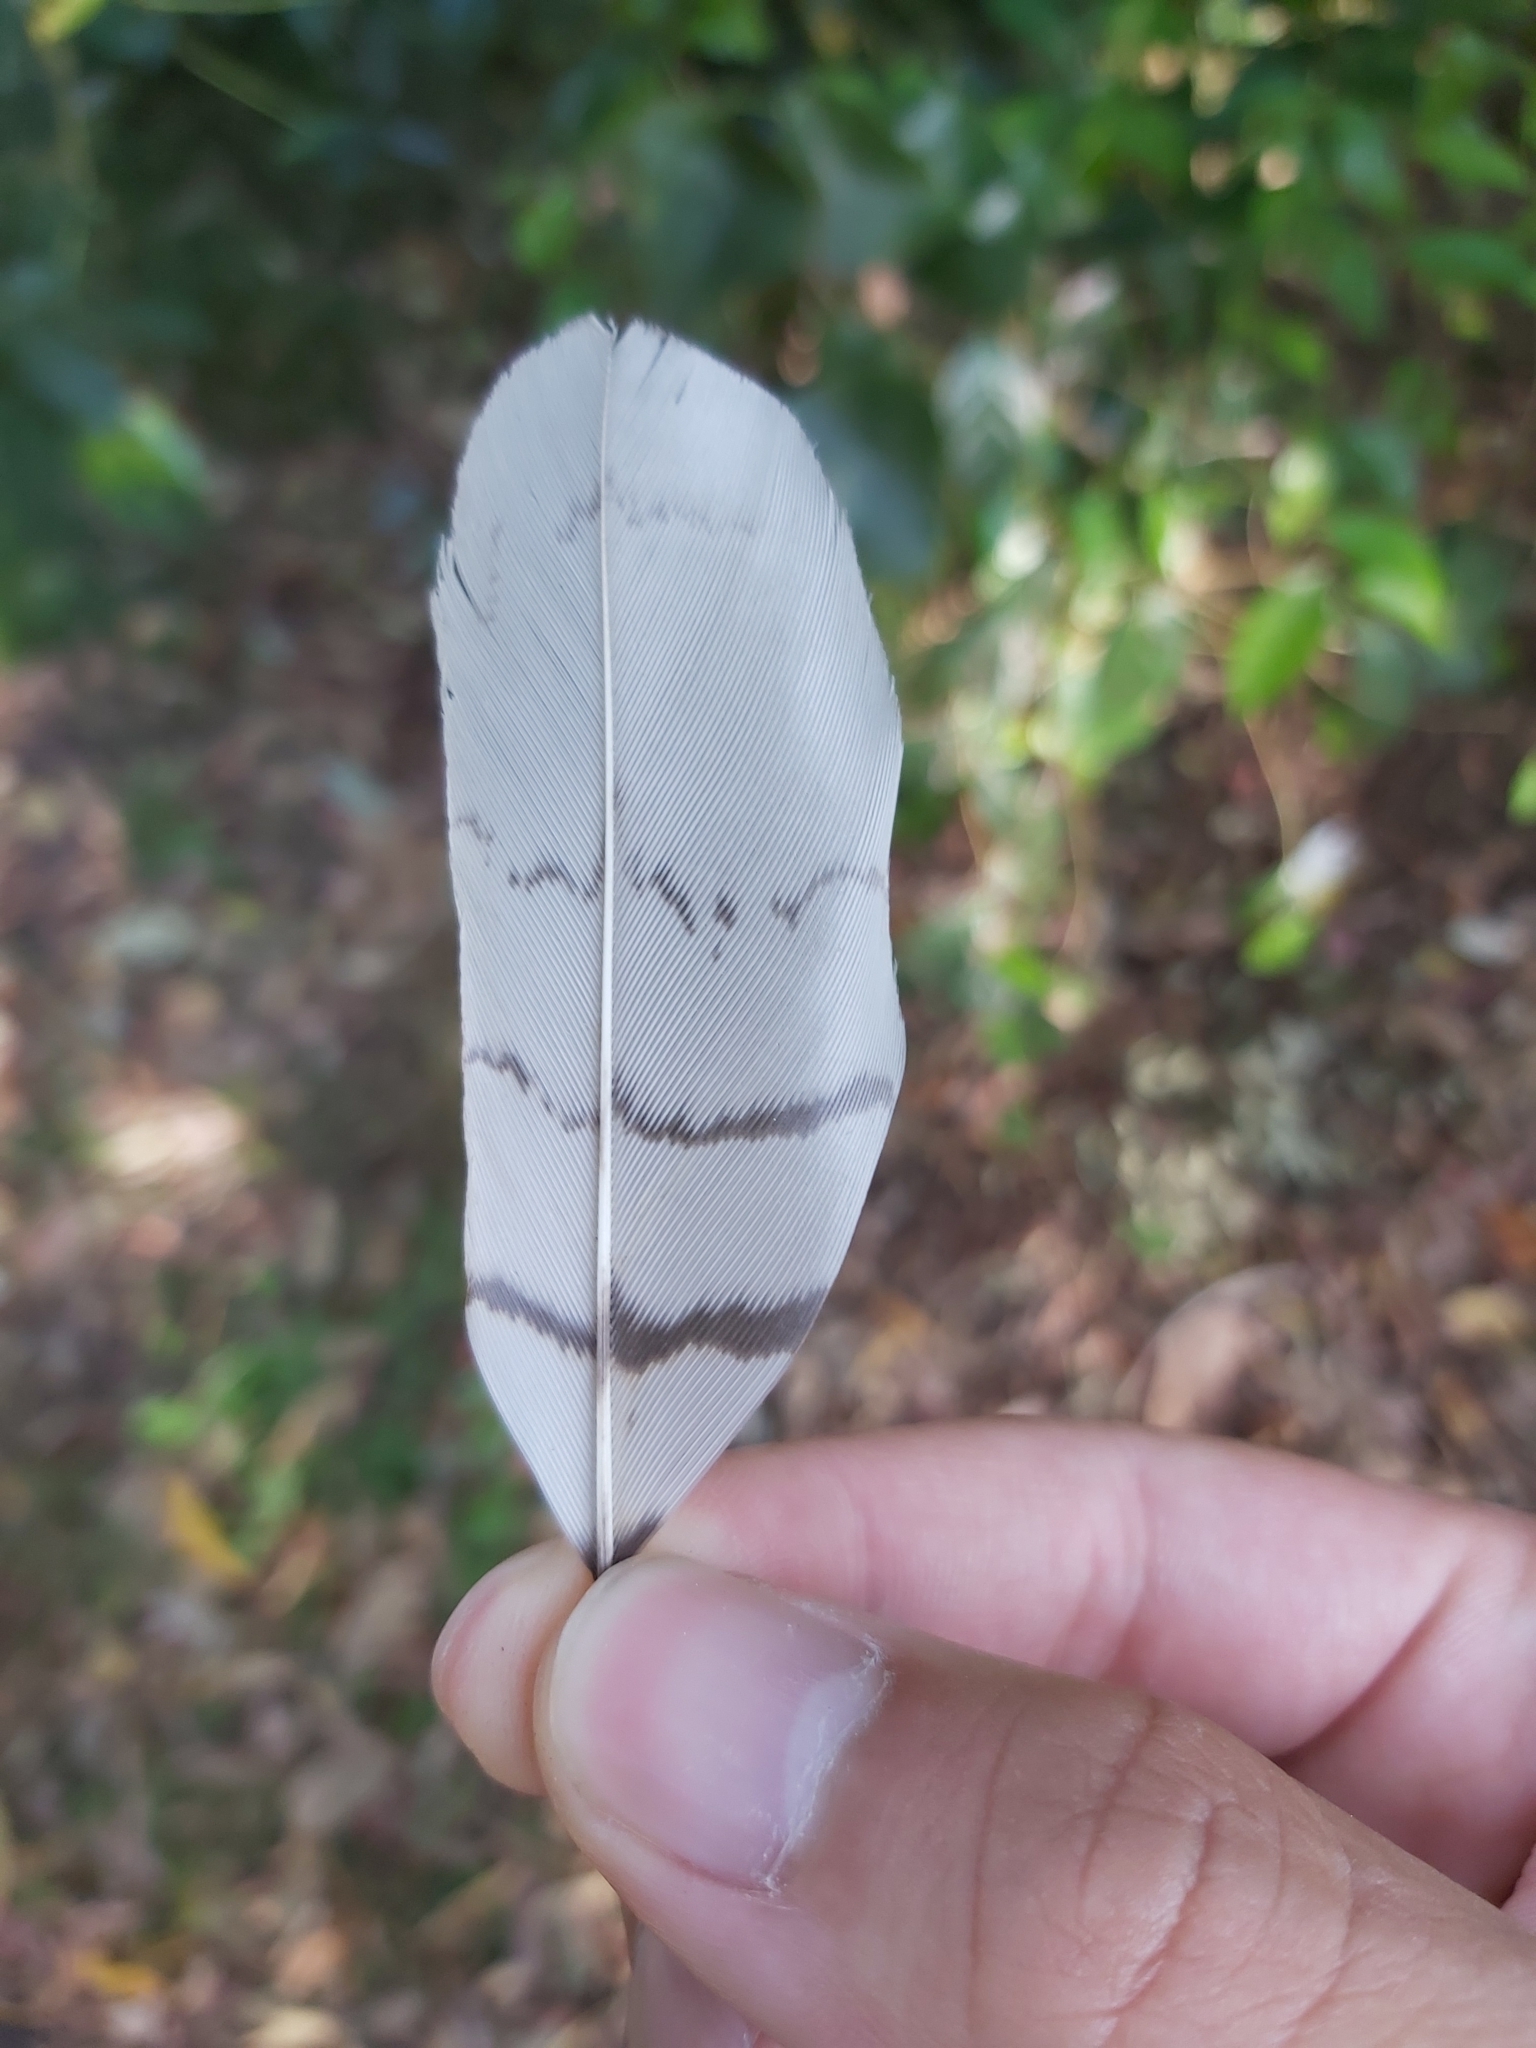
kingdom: Animalia
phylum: Chordata
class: Aves
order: Coraciiformes
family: Alcedinidae
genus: Dacelo
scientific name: Dacelo novaeguineae
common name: Laughing kookaburra
